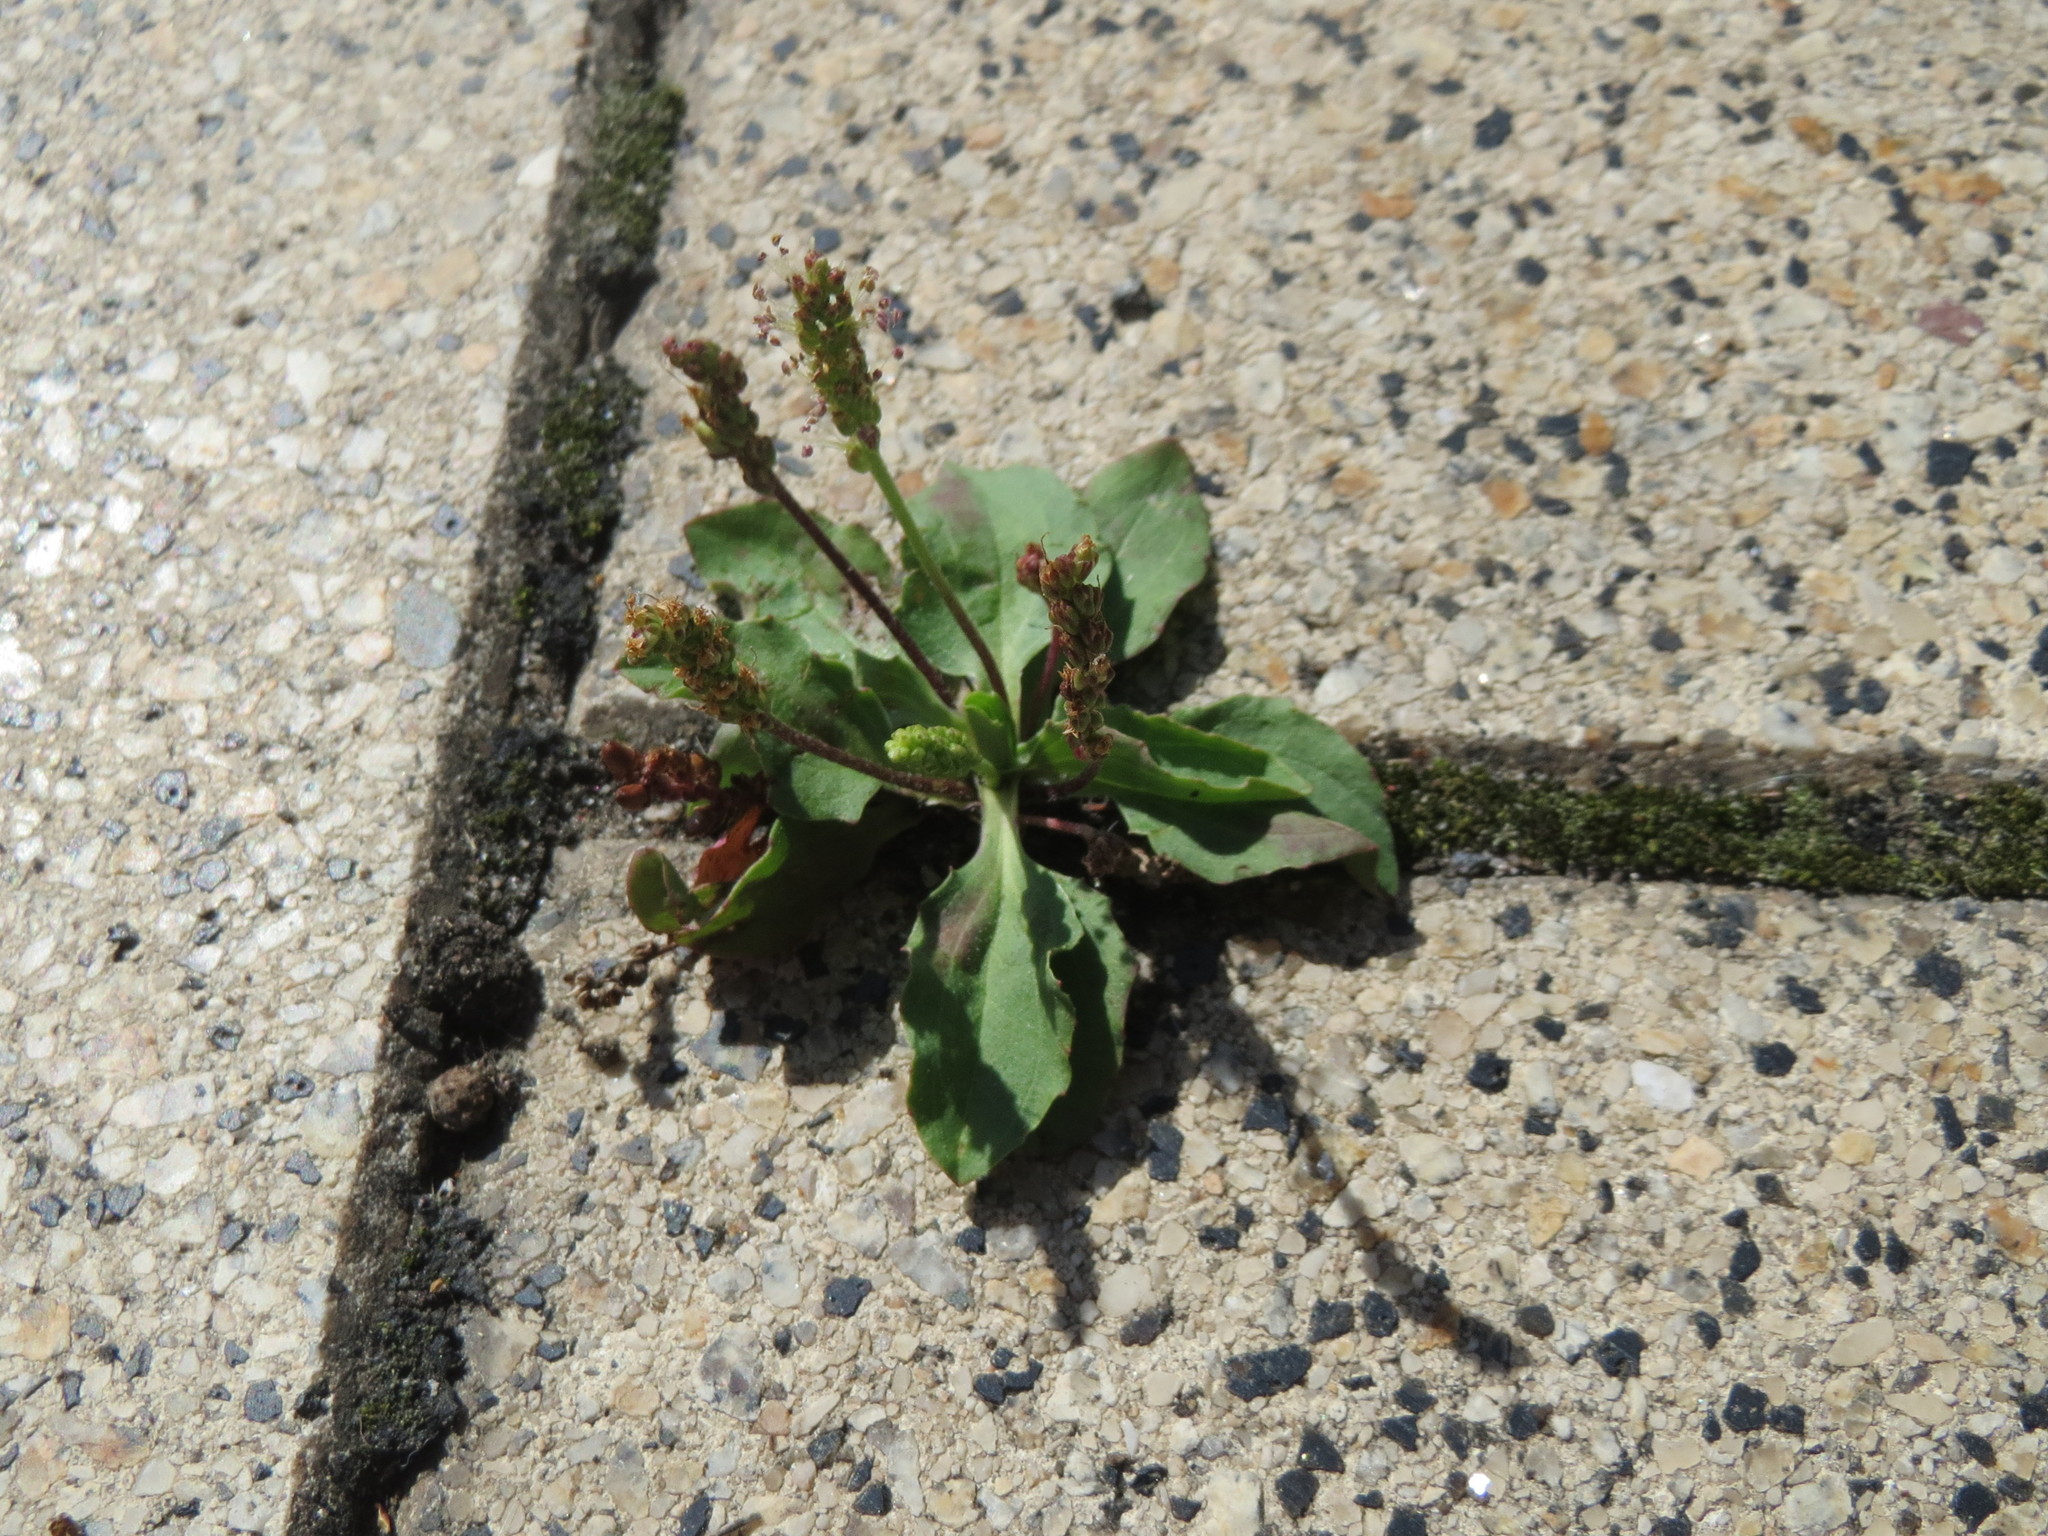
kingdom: Plantae
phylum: Tracheophyta
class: Magnoliopsida
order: Lamiales
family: Plantaginaceae
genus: Plantago
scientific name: Plantago major
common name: Common plantain
